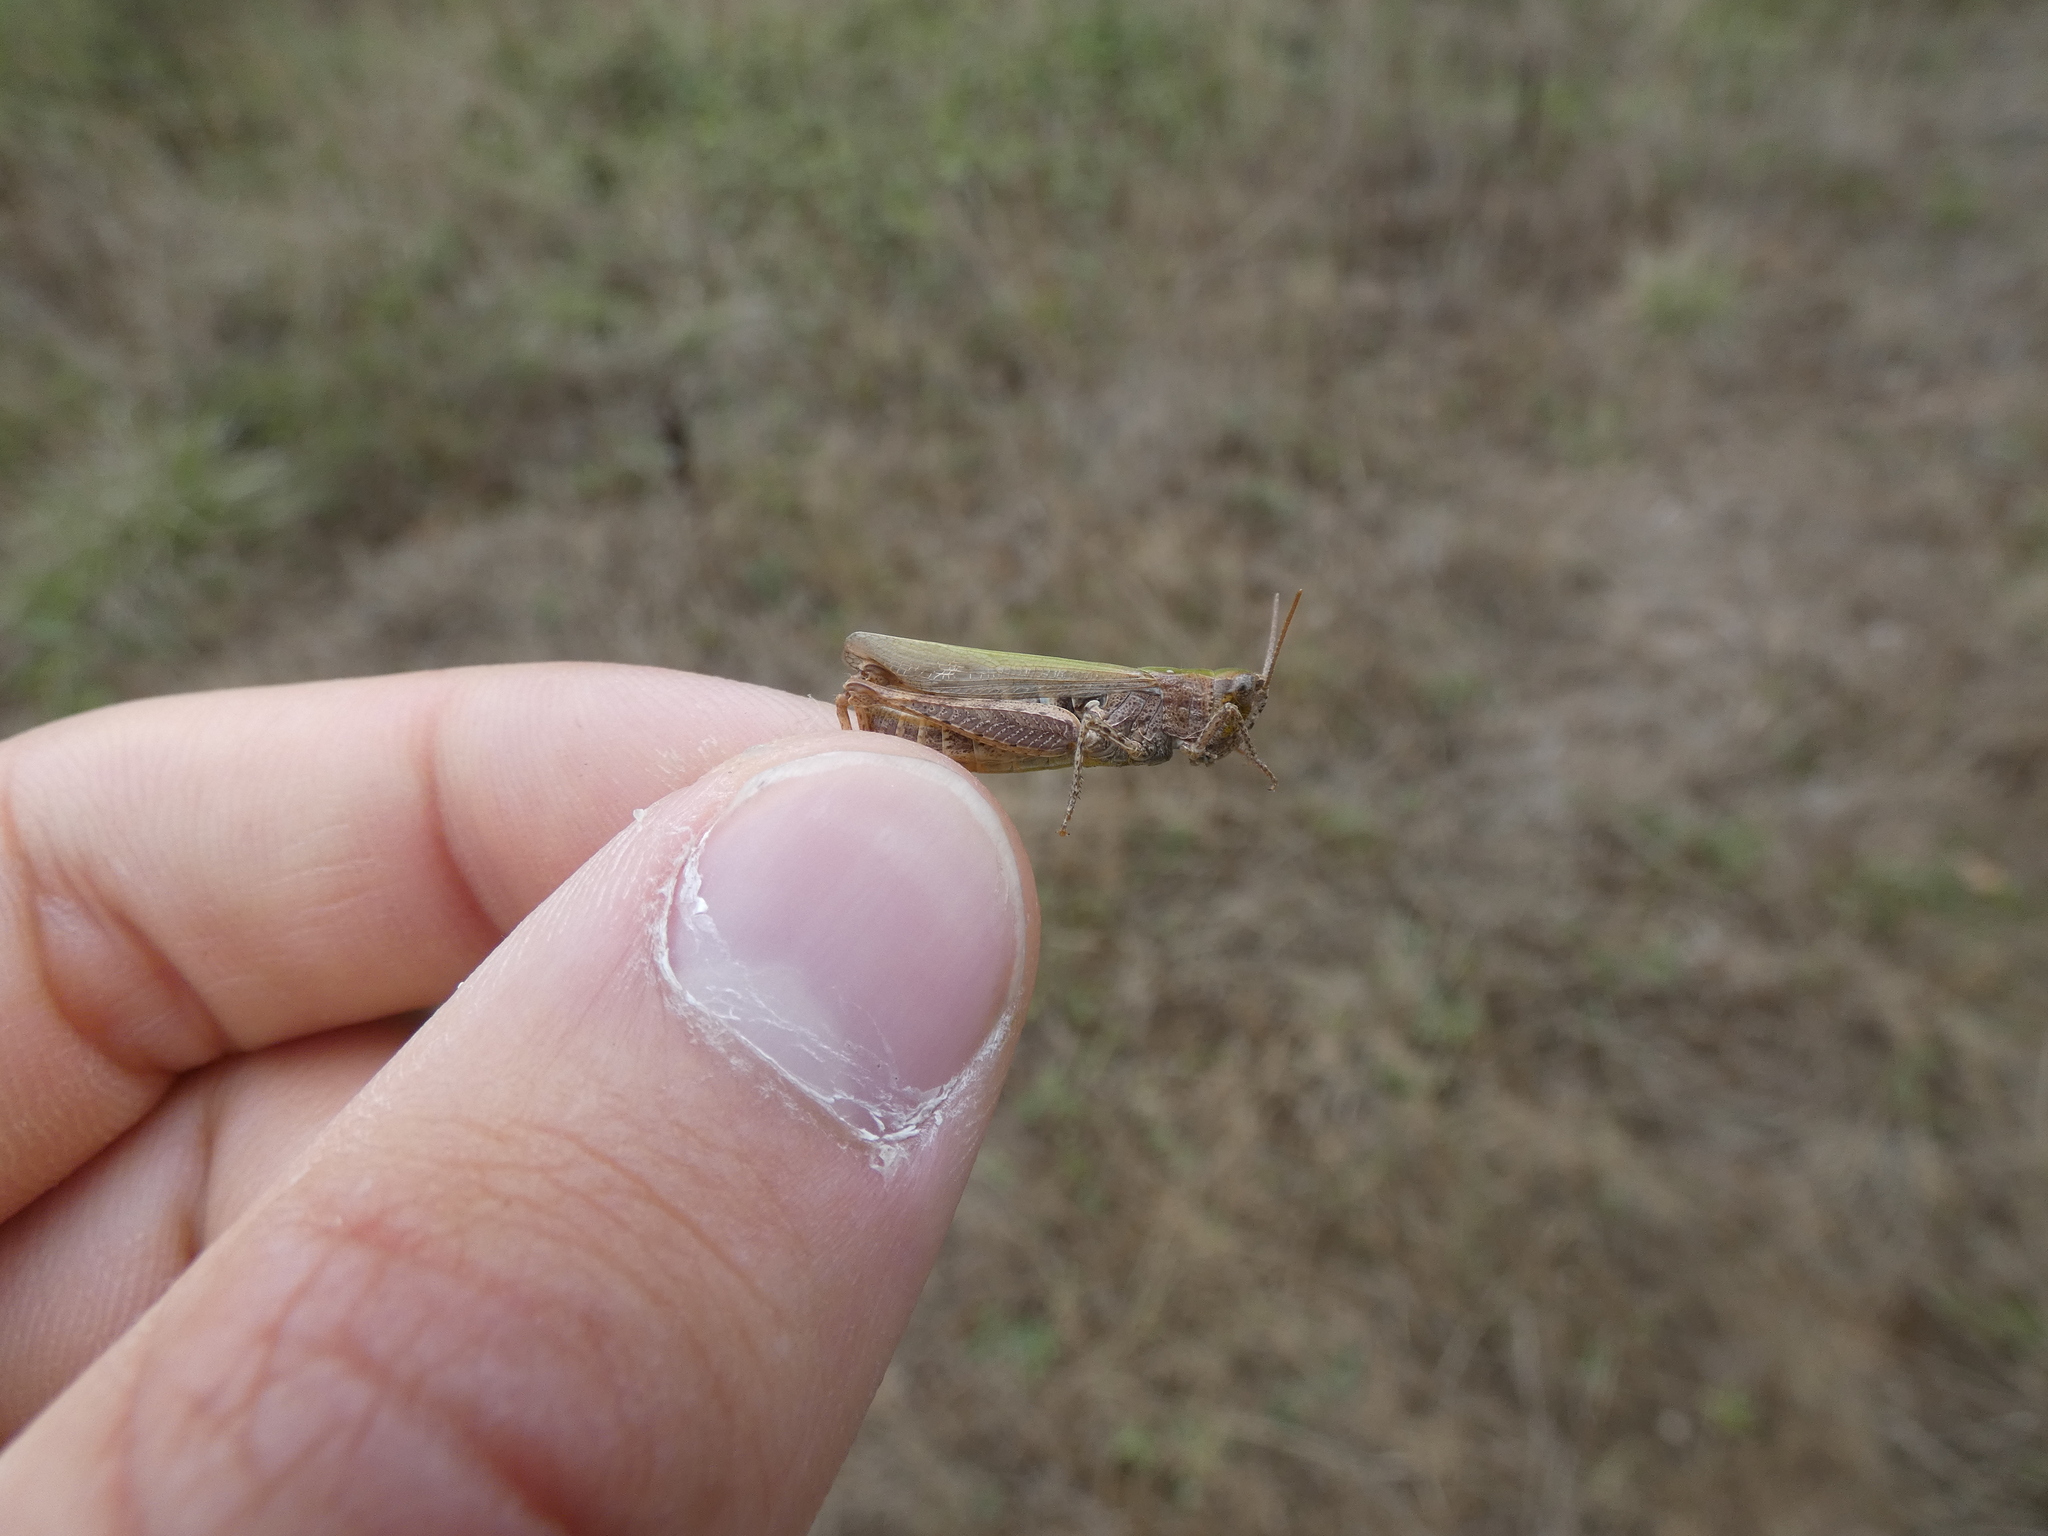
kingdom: Animalia
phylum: Arthropoda
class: Insecta
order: Orthoptera
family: Acrididae
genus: Chorthippus
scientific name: Chorthippus dorsatus
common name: Steppe grasshopper
